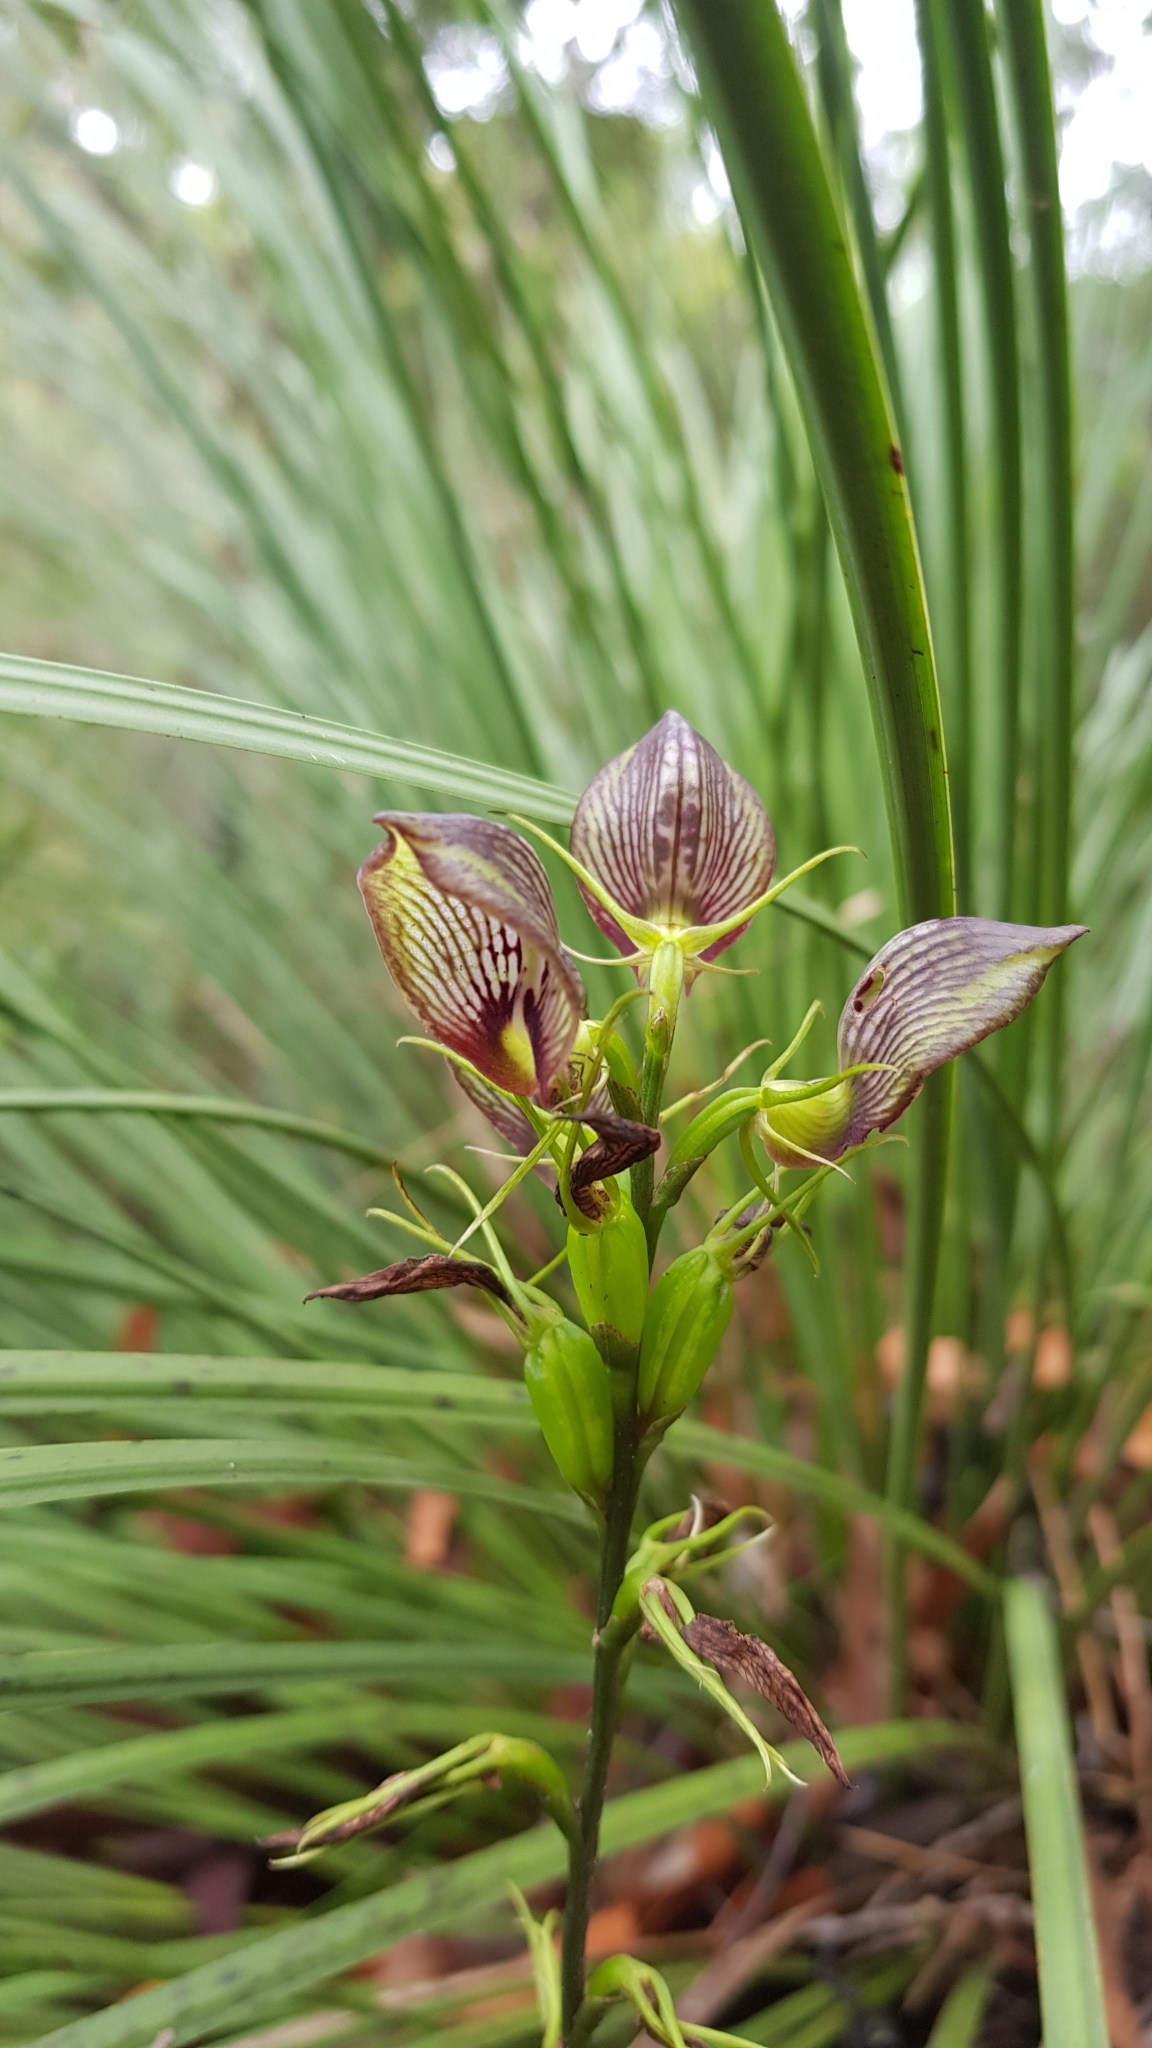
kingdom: Plantae
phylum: Tracheophyta
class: Liliopsida
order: Asparagales
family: Orchidaceae
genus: Cryptostylis
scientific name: Cryptostylis erecta
